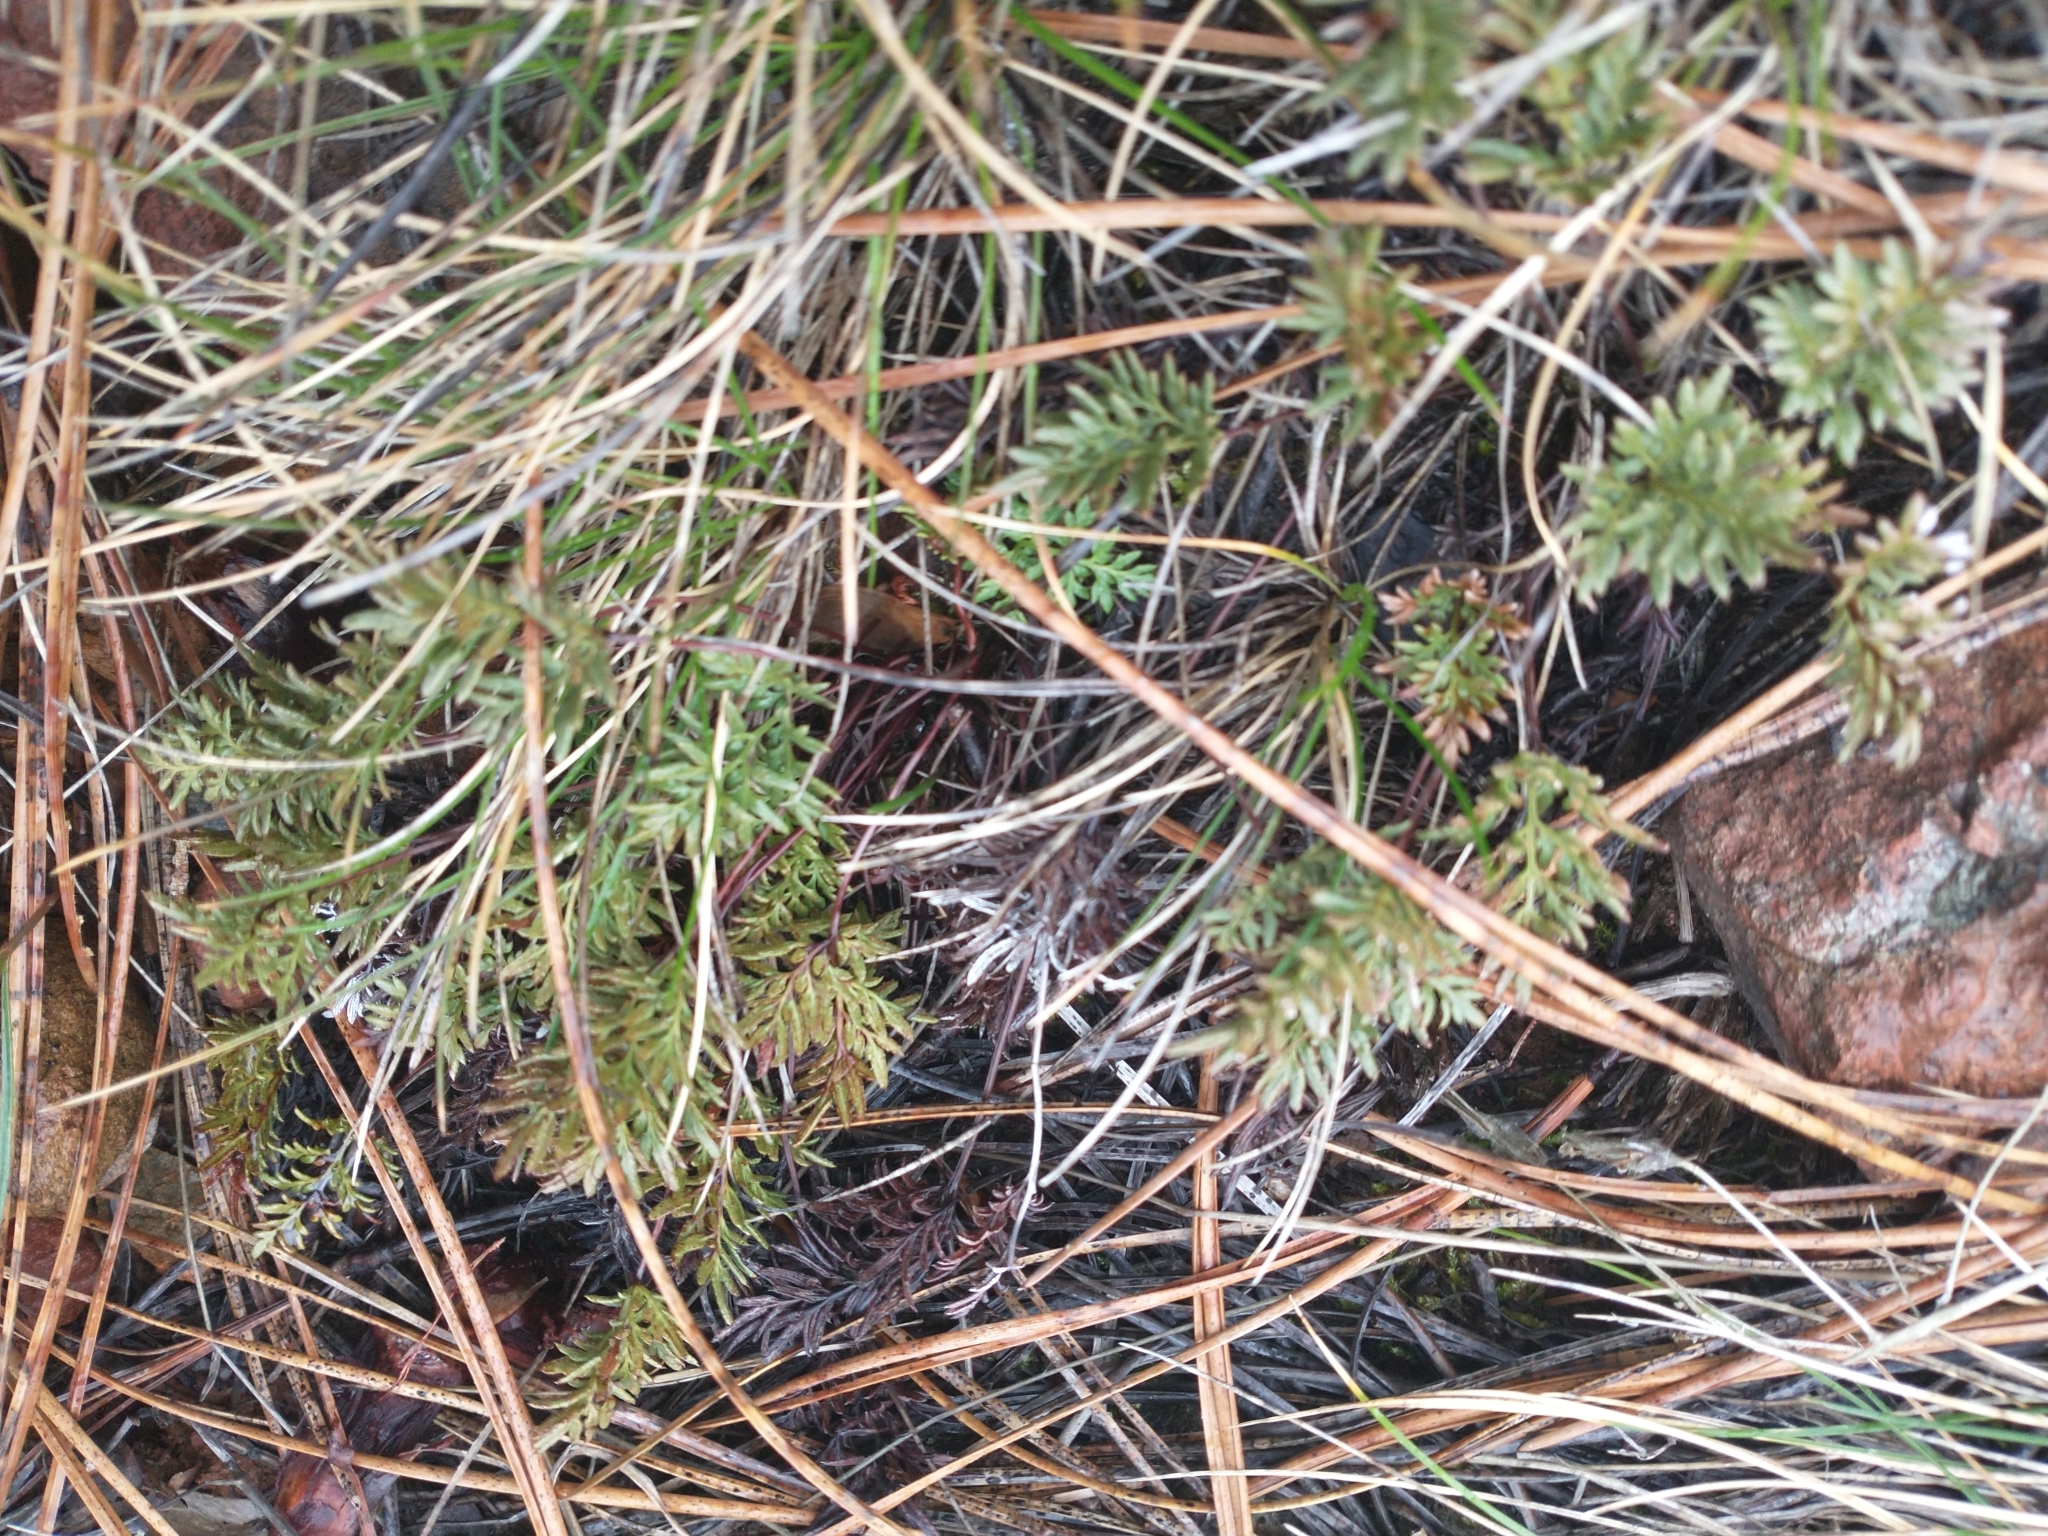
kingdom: Plantae
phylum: Tracheophyta
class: Polypodiopsida
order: Polypodiales
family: Pteridaceae
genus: Aspidotis
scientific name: Aspidotis densa
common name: Indian's dream
